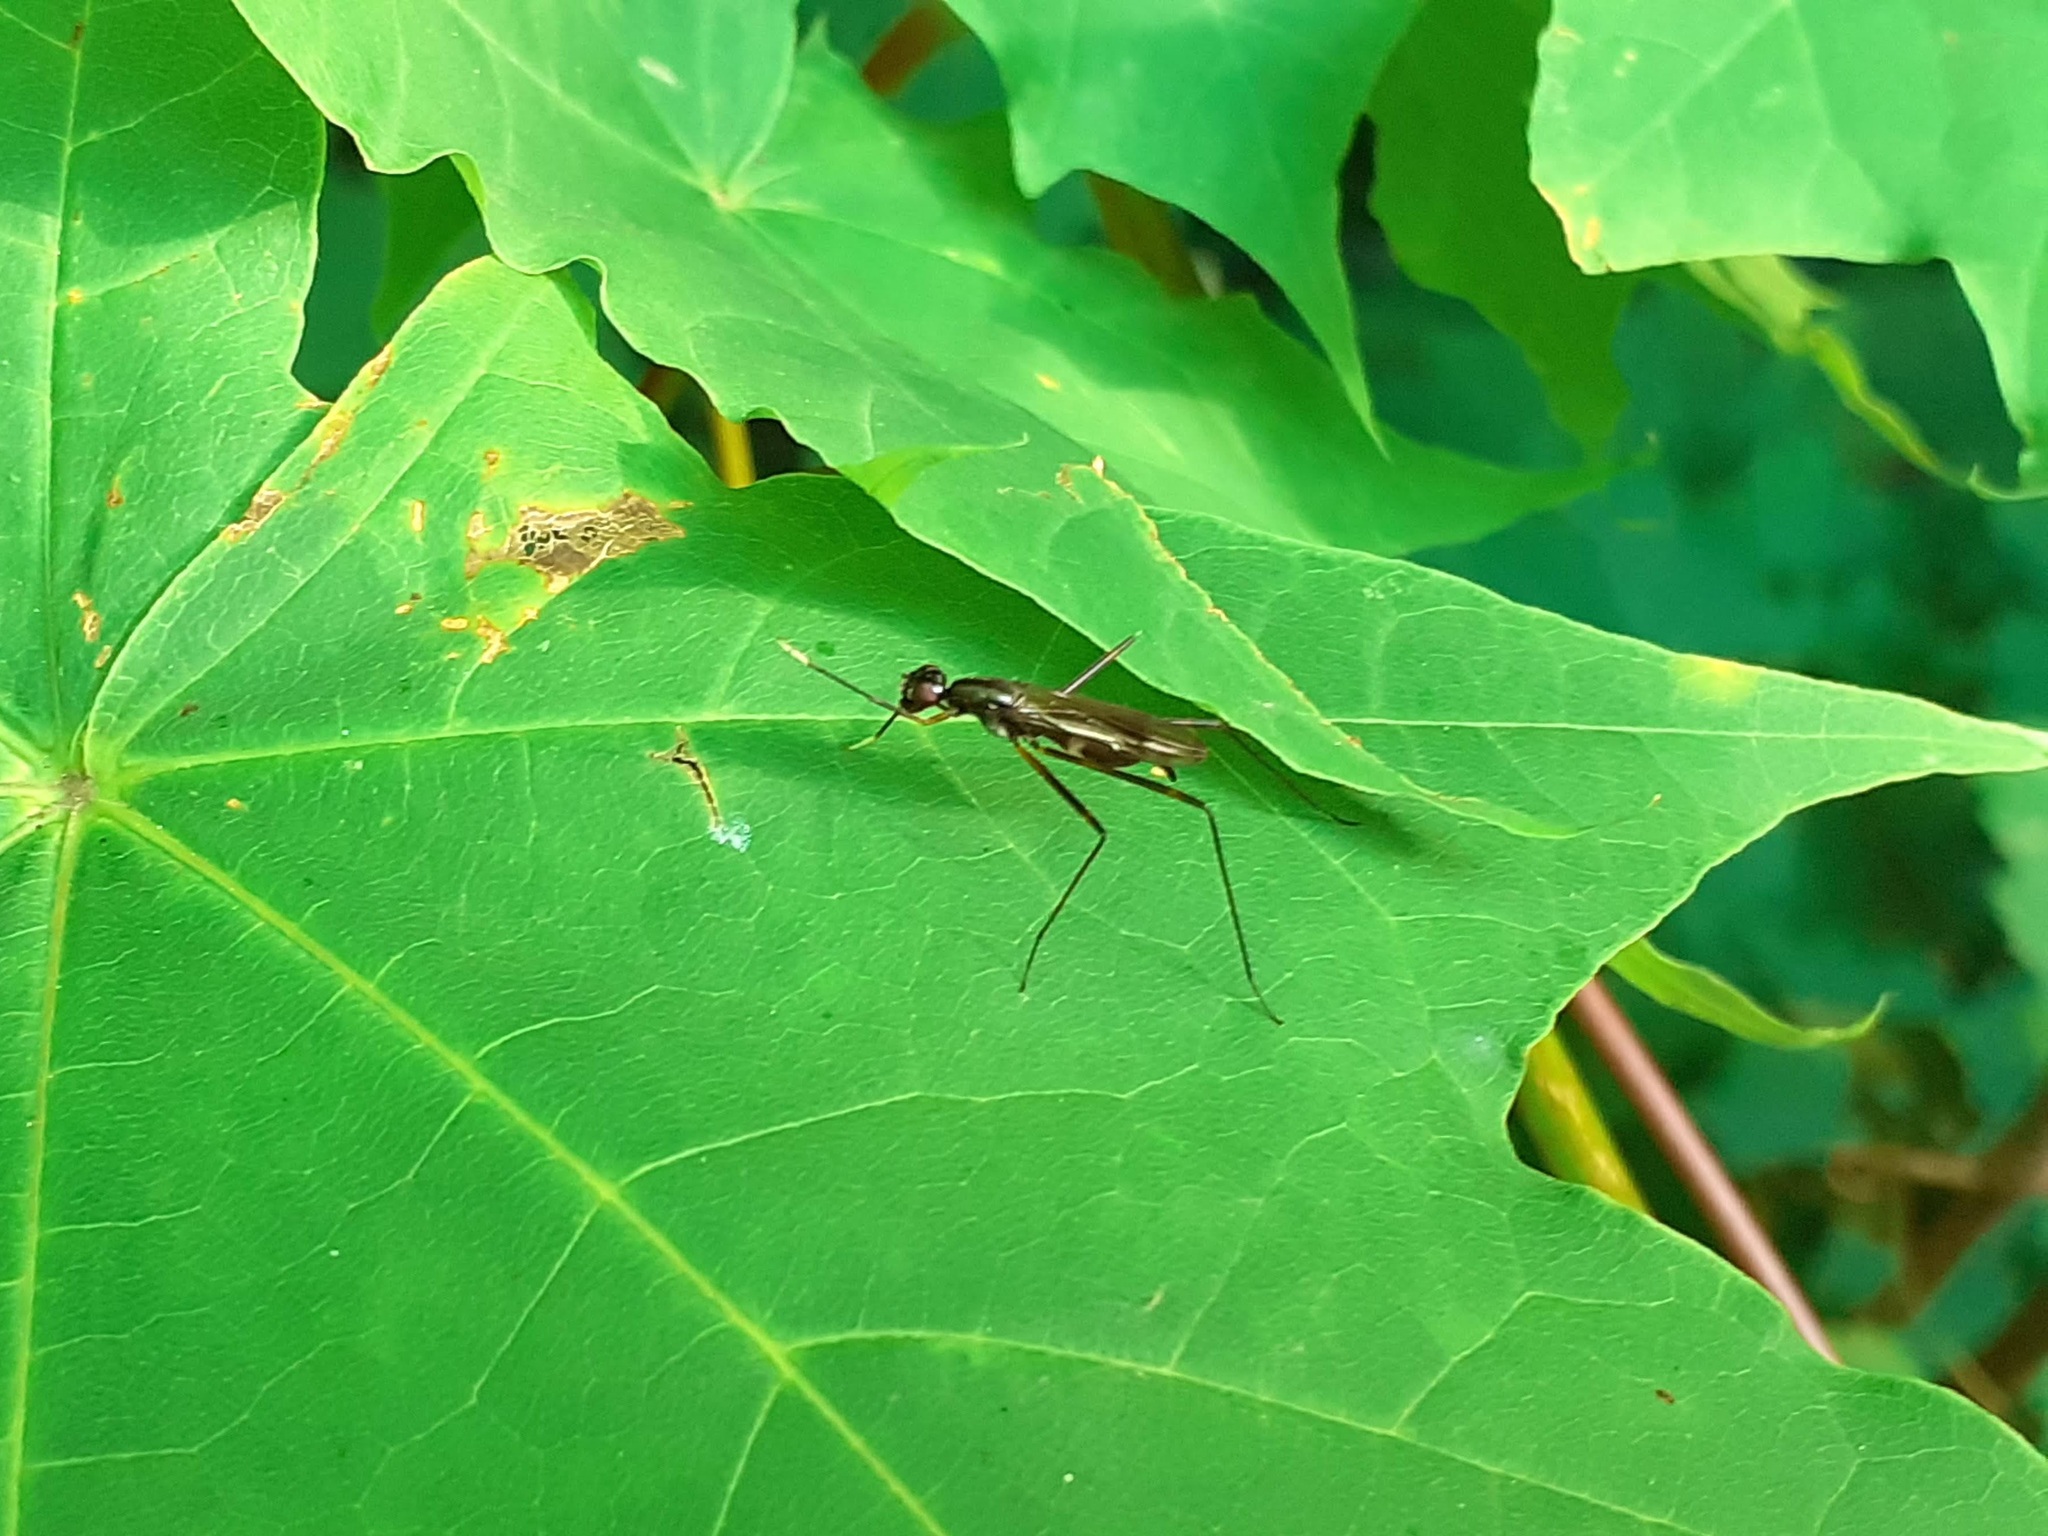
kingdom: Animalia
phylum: Arthropoda
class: Insecta
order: Diptera
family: Micropezidae
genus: Rainieria
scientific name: Rainieria latifrons
